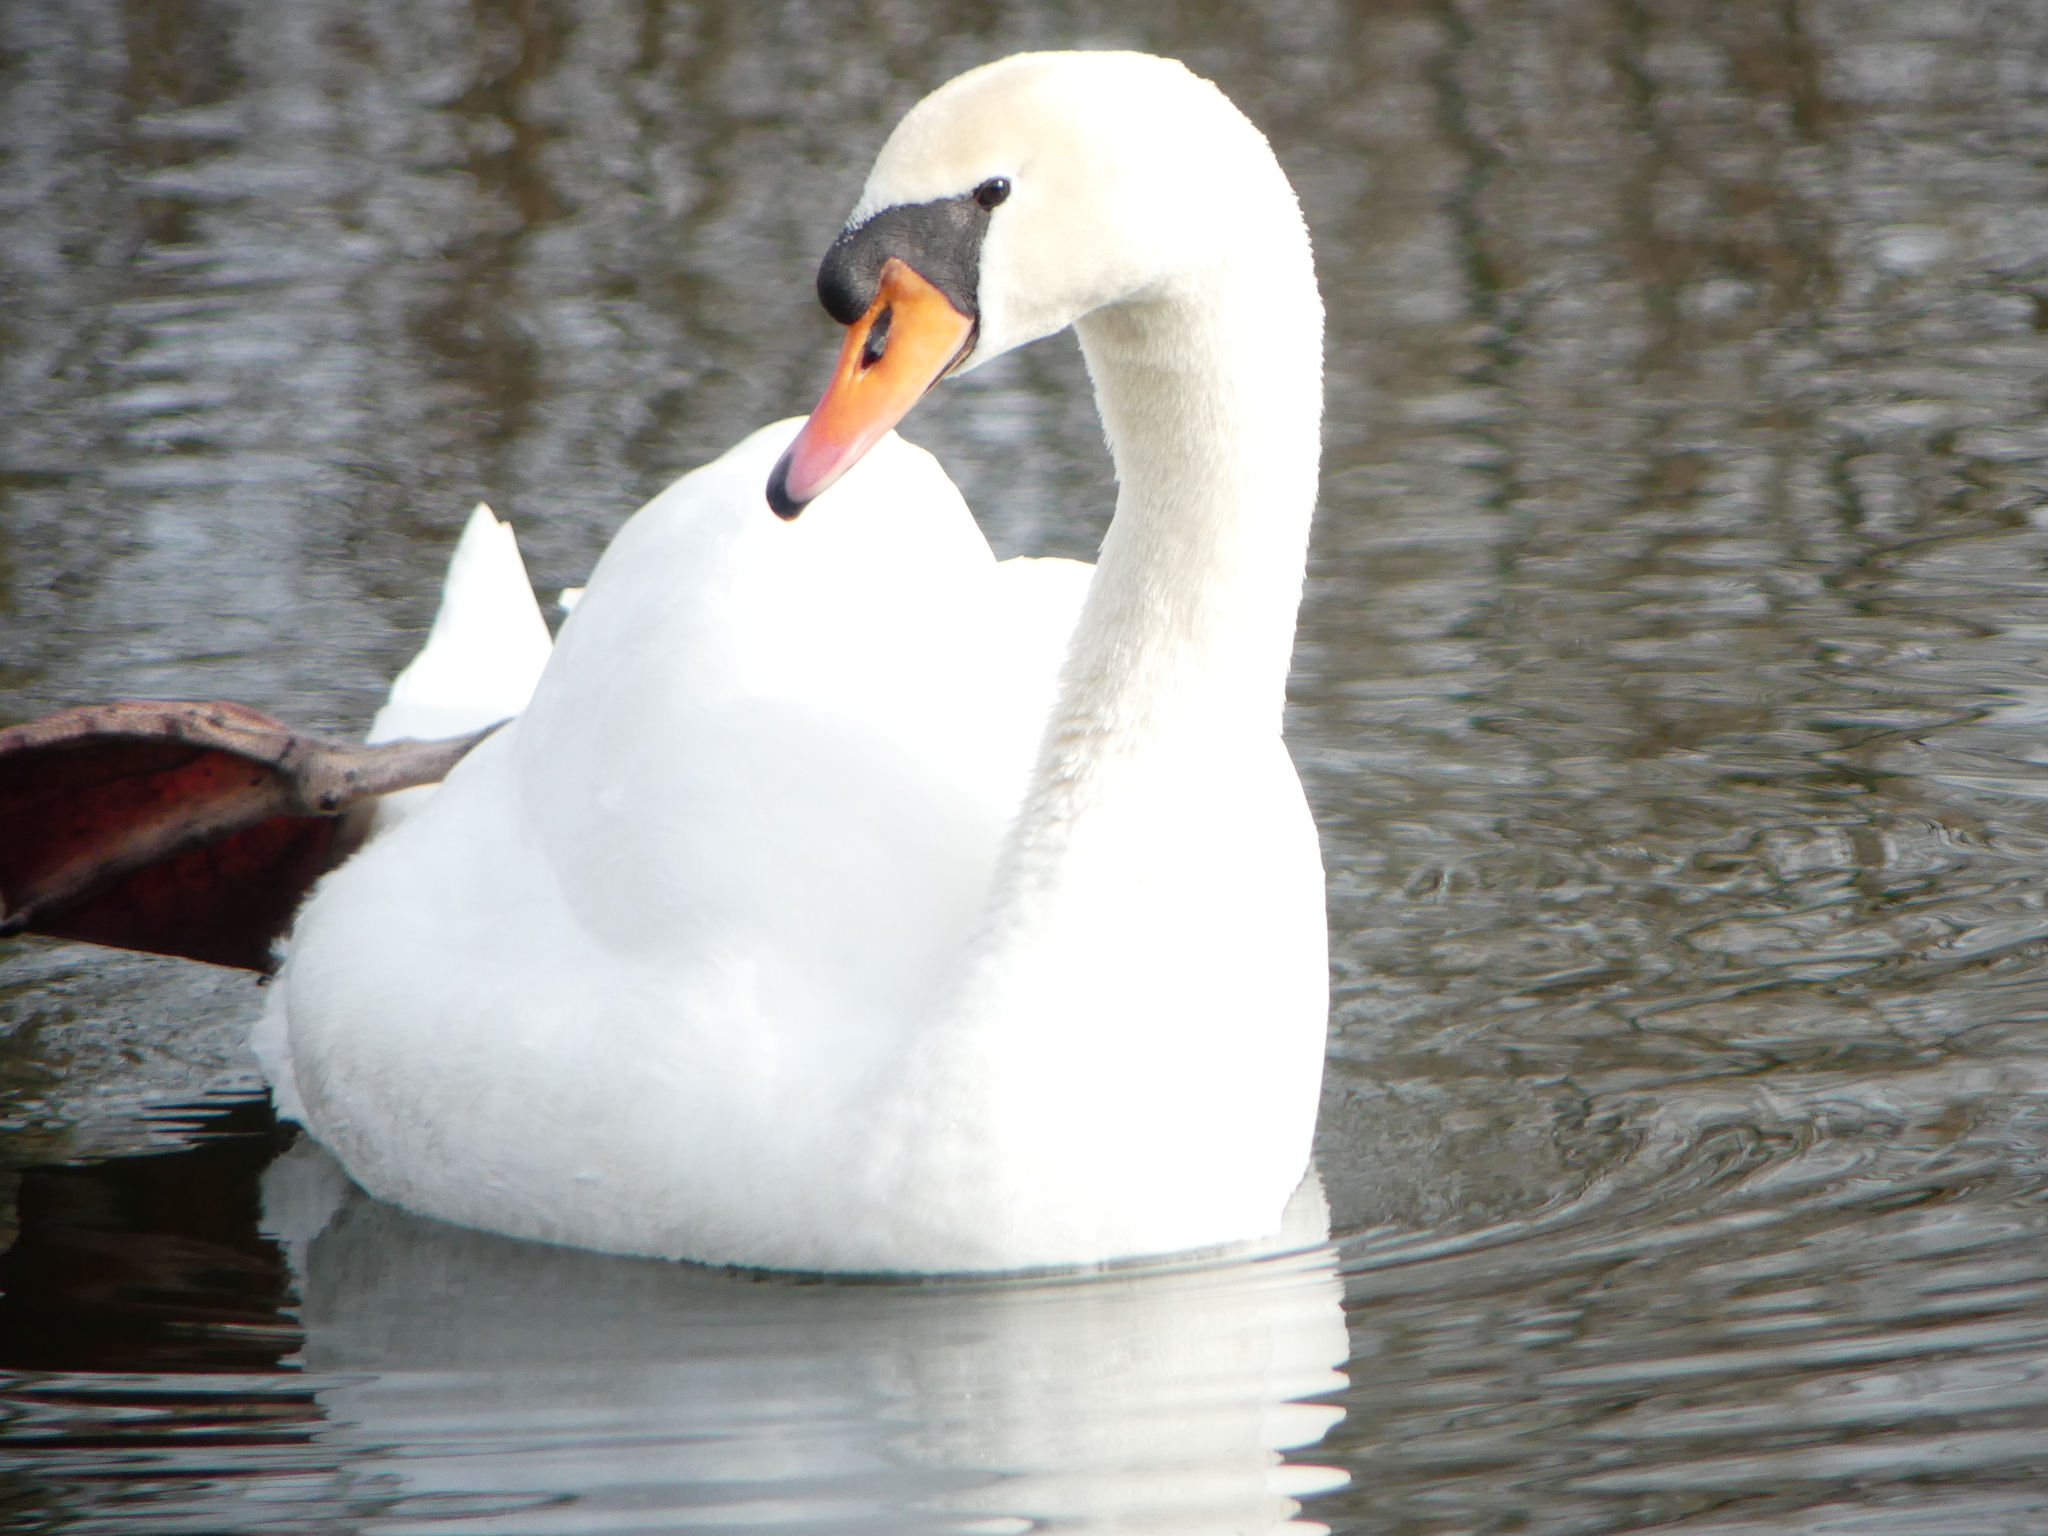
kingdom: Animalia
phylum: Chordata
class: Aves
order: Anseriformes
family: Anatidae
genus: Cygnus
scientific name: Cygnus olor
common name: Mute swan
